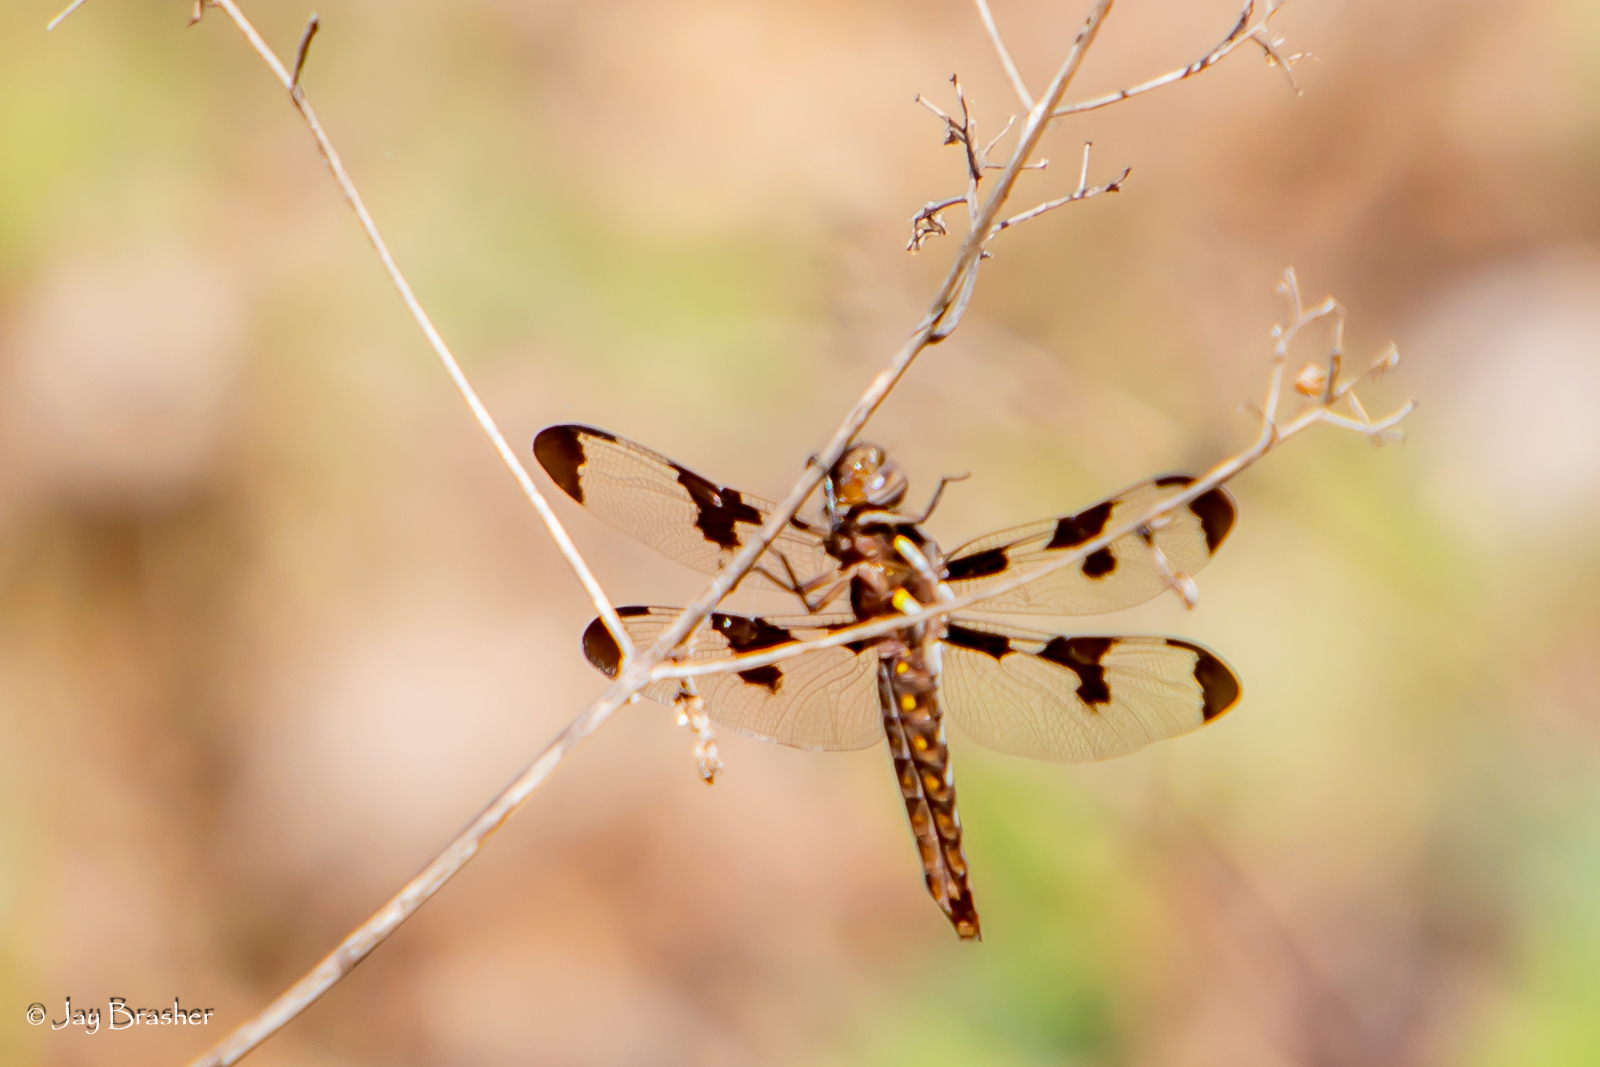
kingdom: Animalia
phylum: Arthropoda
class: Insecta
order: Odonata
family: Libellulidae
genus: Plathemis
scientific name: Plathemis lydia
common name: Common whitetail
